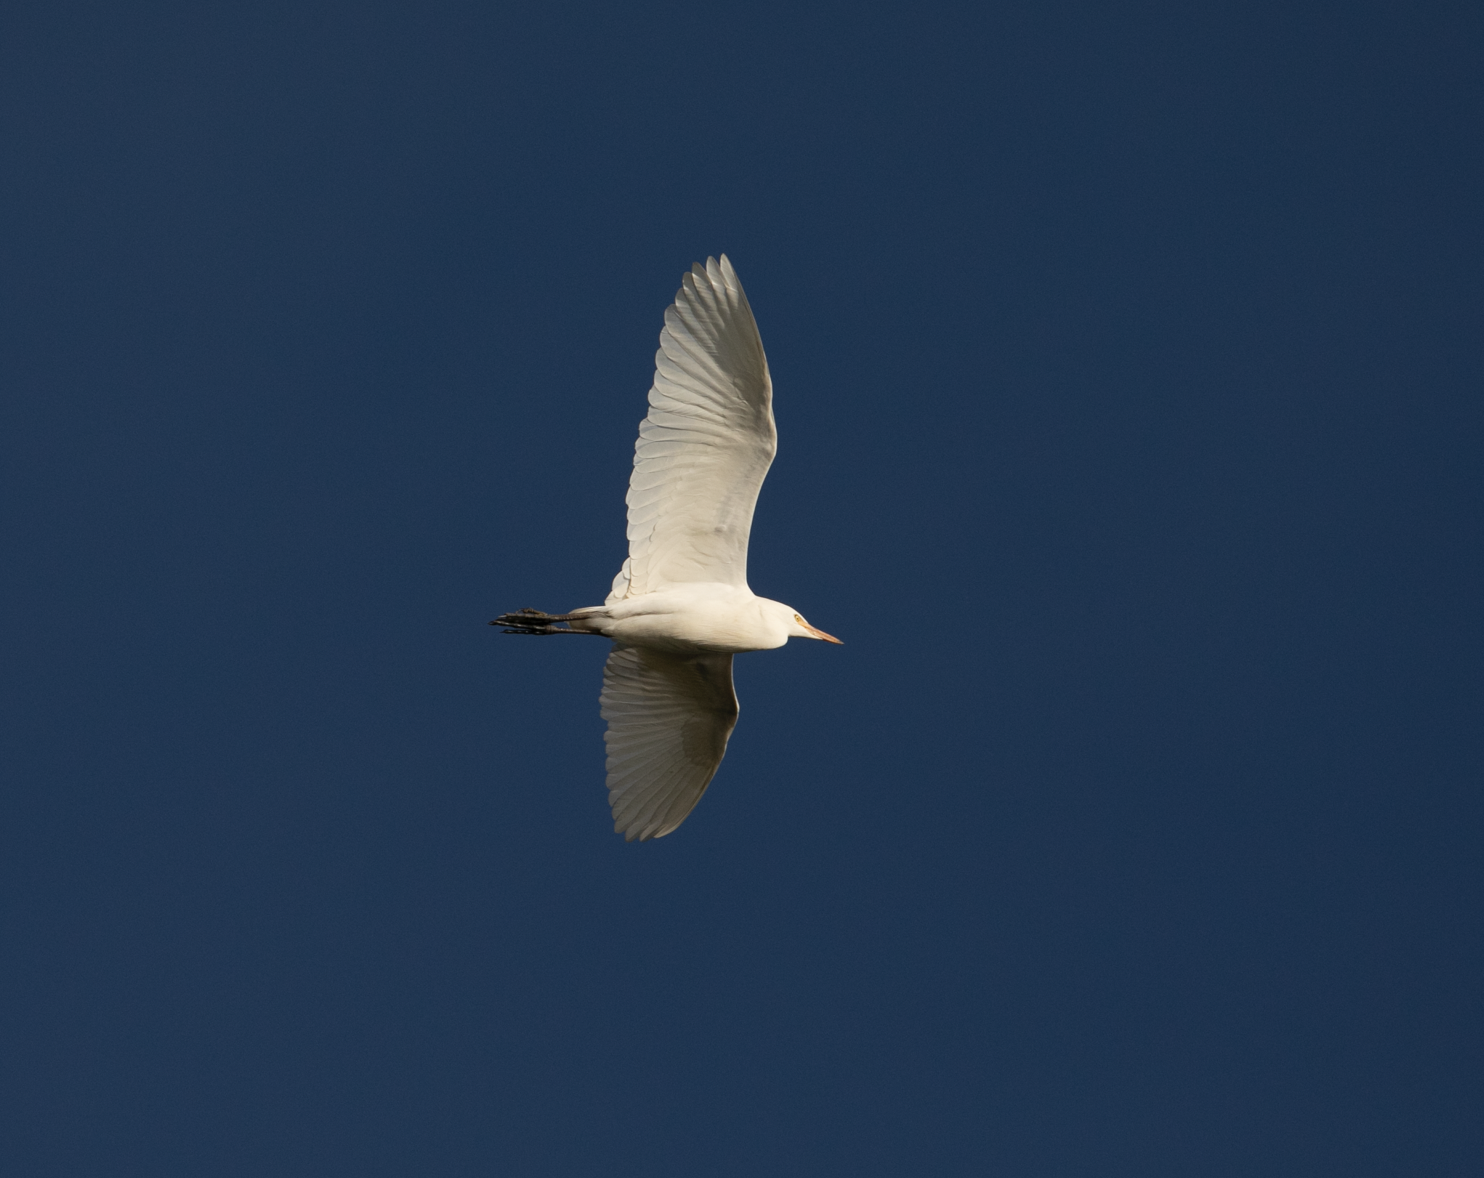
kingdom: Animalia
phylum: Chordata
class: Aves
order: Pelecaniformes
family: Ardeidae
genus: Bubulcus
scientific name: Bubulcus ibis
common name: Cattle egret
